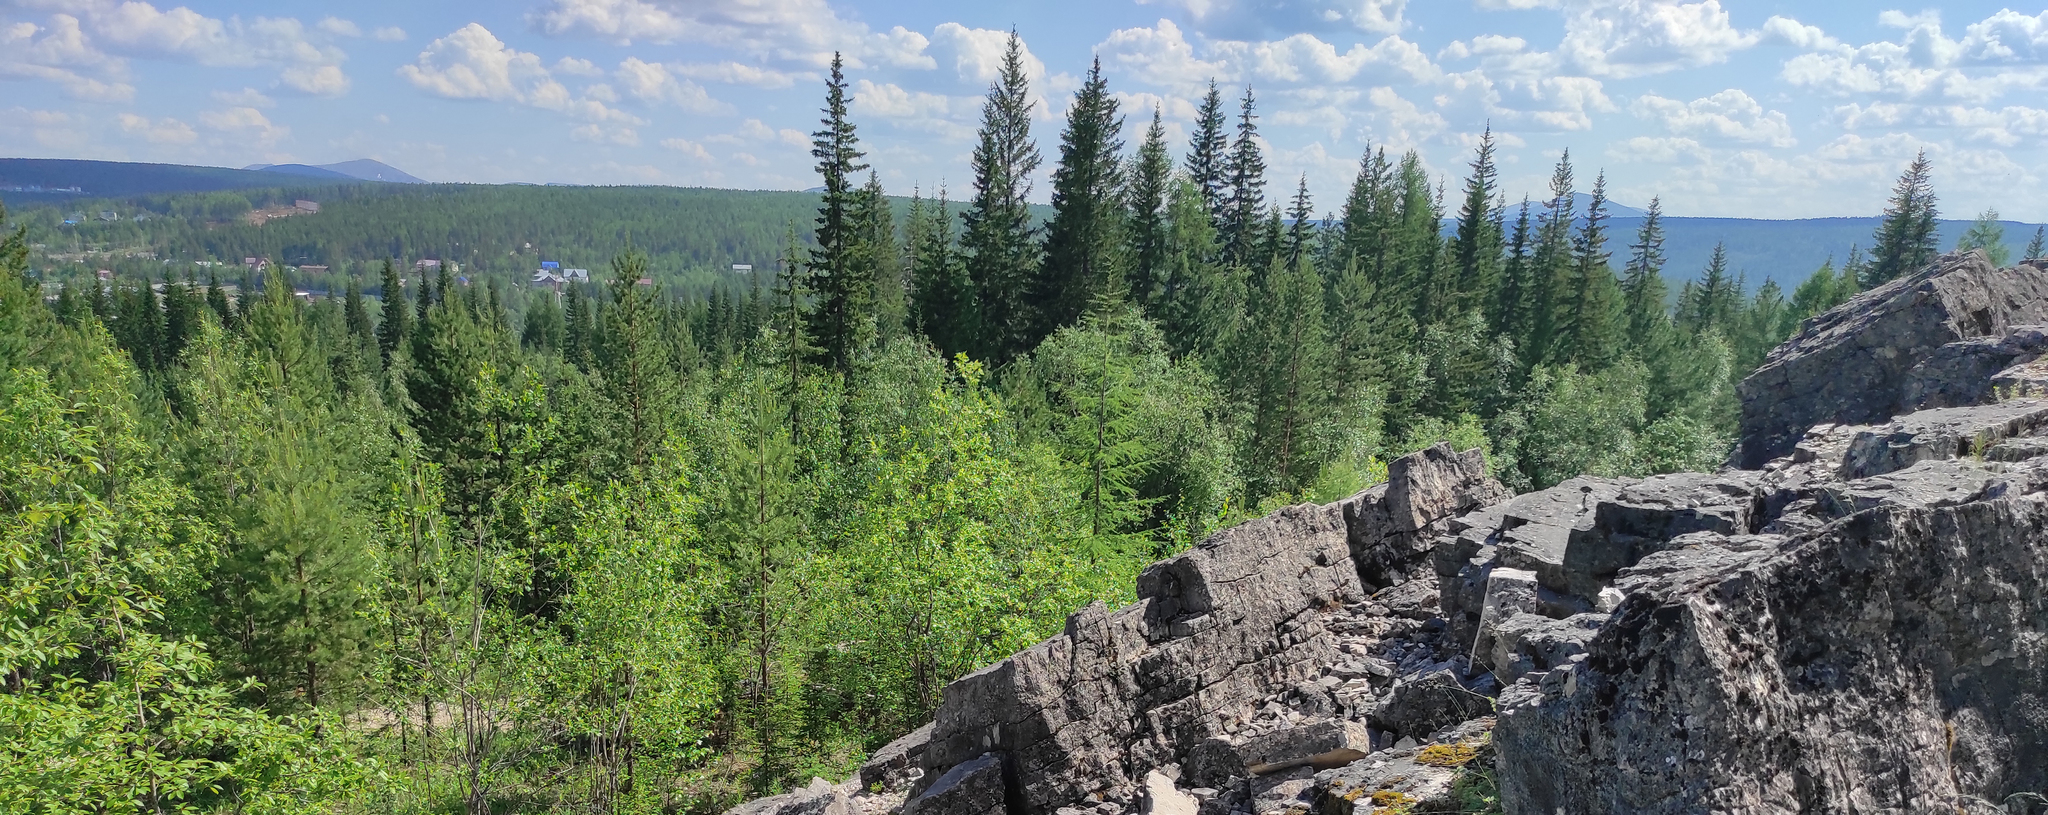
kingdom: Plantae
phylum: Tracheophyta
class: Polypodiopsida
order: Polypodiales
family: Cystopteridaceae
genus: Gymnocarpium
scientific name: Gymnocarpium jessoense
